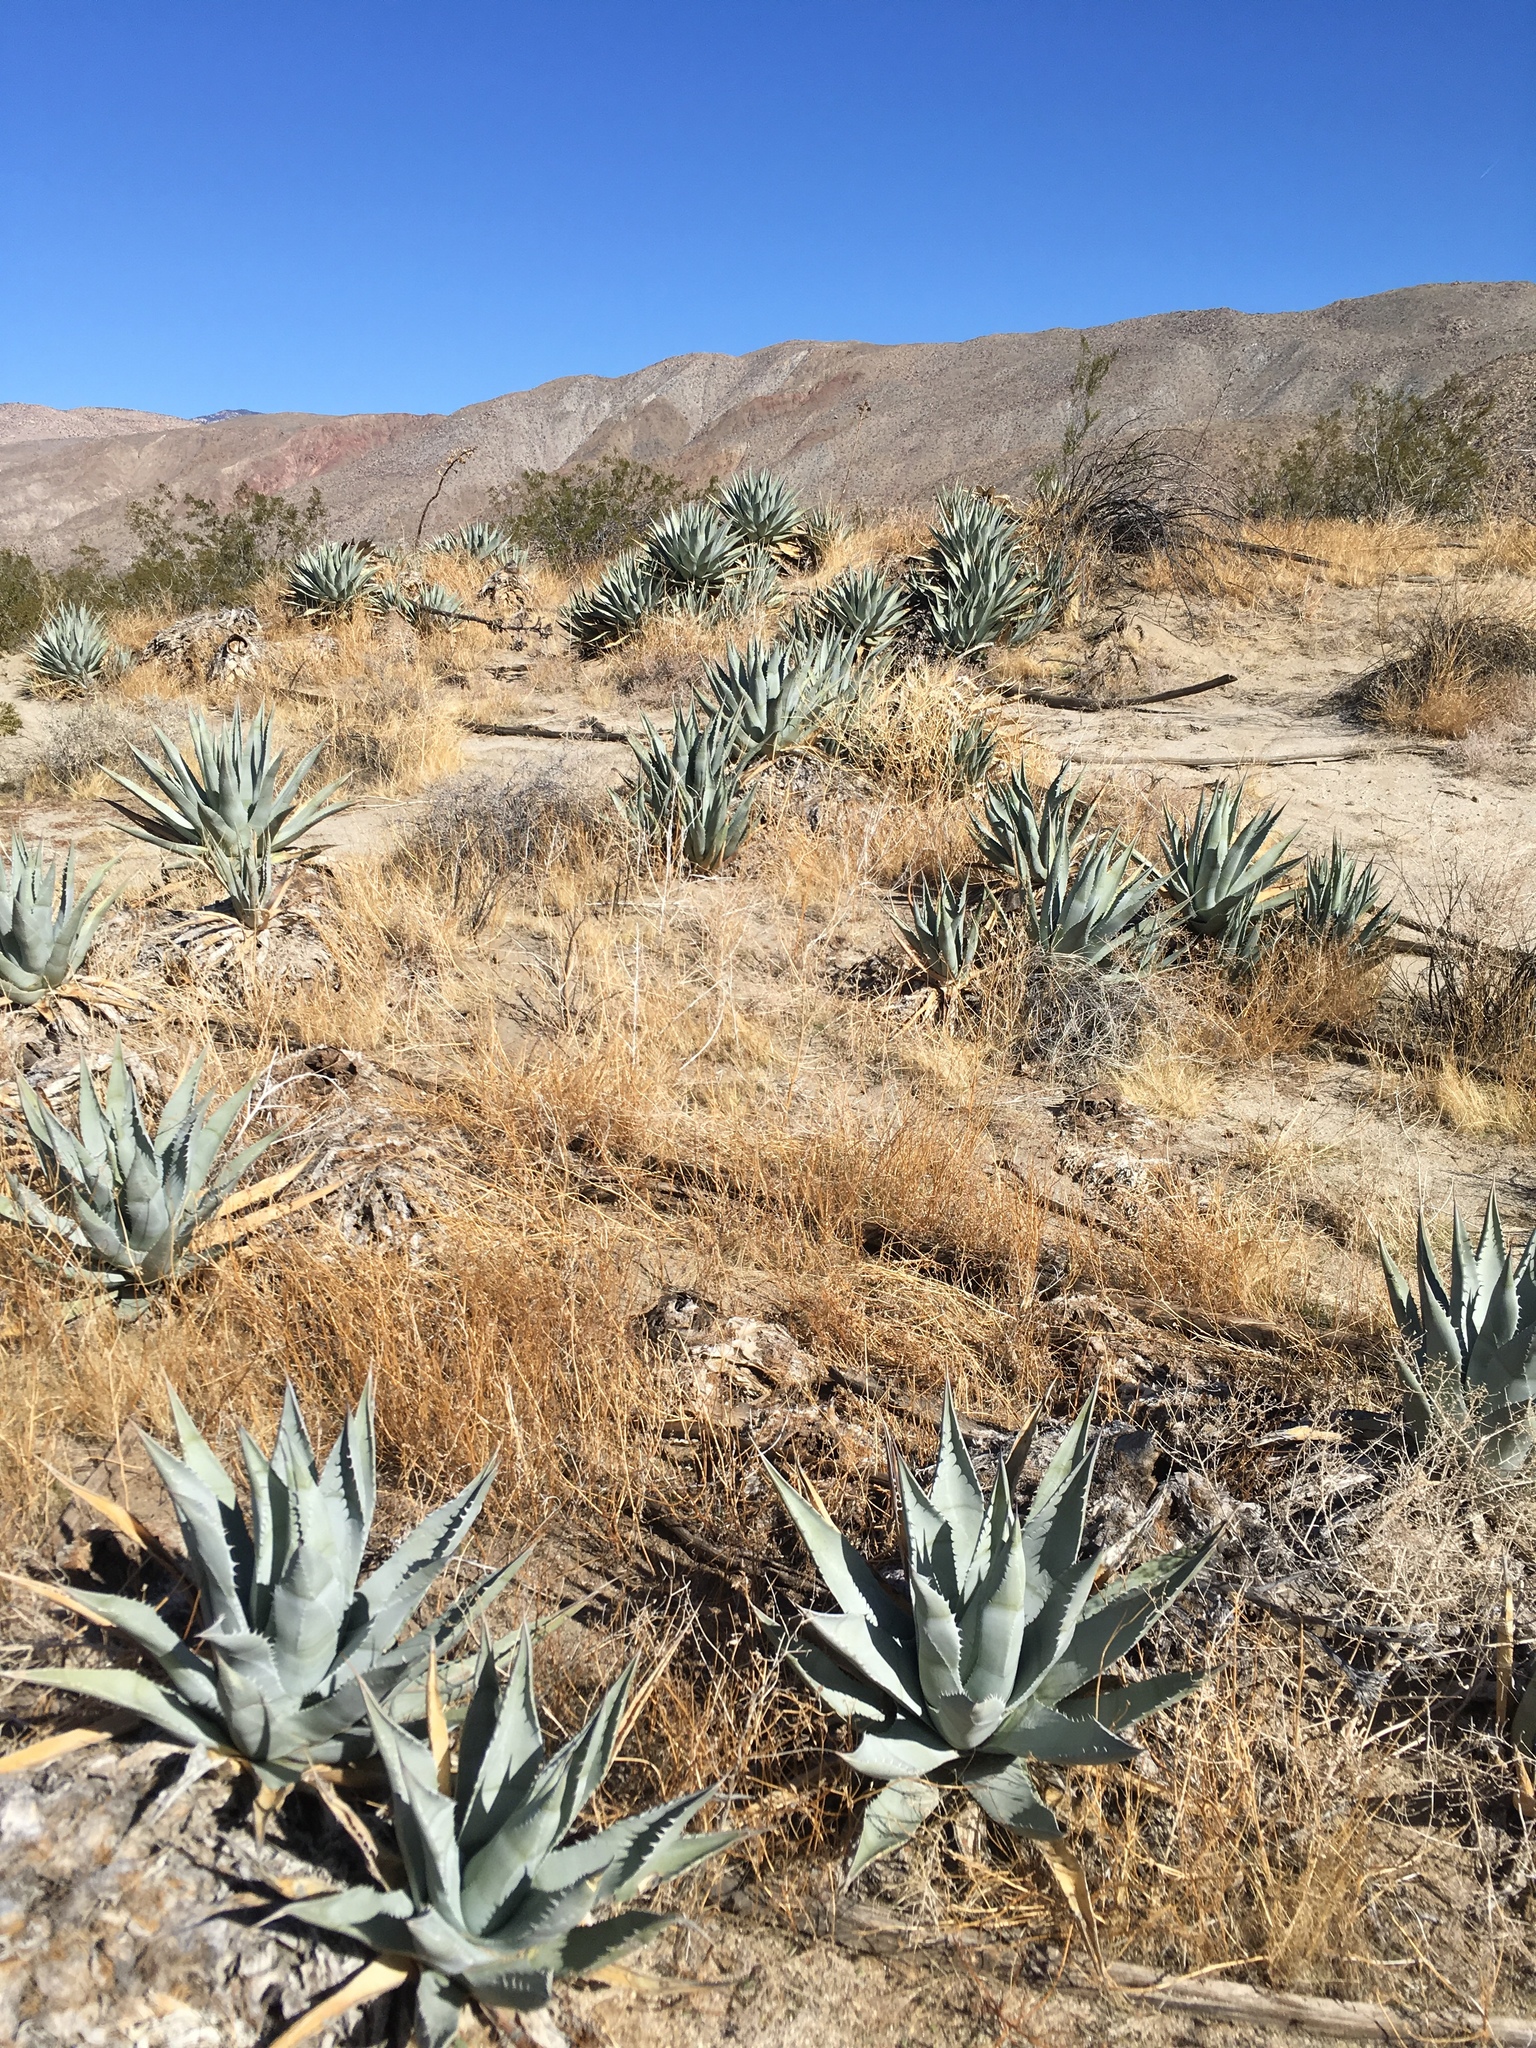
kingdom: Plantae
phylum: Tracheophyta
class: Liliopsida
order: Asparagales
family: Asparagaceae
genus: Agave
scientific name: Agave deserti
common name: Desert agave
